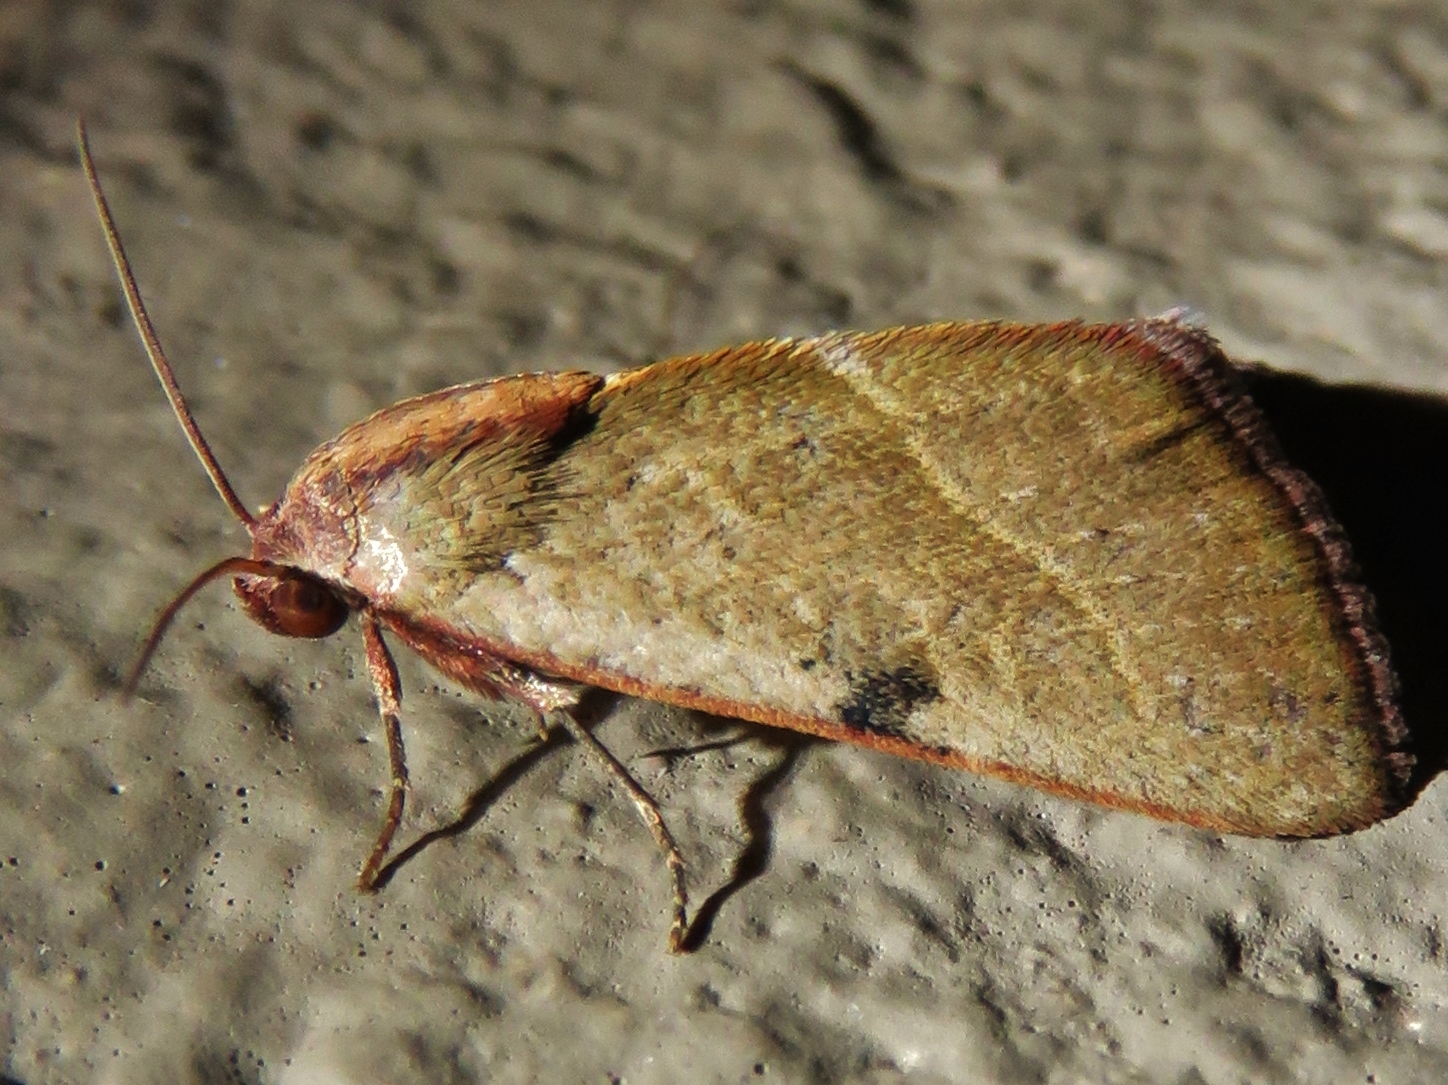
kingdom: Animalia
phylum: Arthropoda
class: Insecta
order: Lepidoptera
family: Noctuidae
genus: Galgula
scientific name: Galgula partita
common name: Wedgeling
